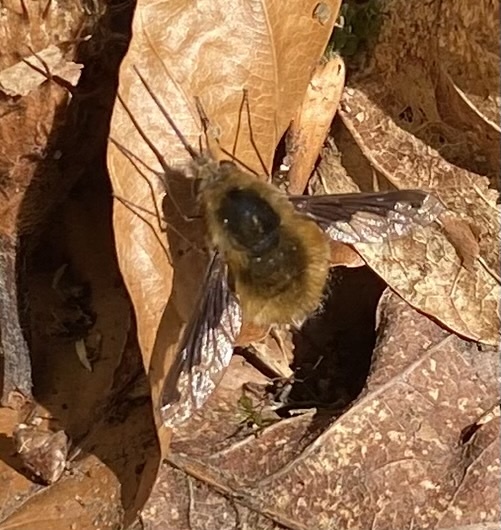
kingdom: Animalia
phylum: Arthropoda
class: Insecta
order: Diptera
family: Bombyliidae
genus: Bombylius
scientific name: Bombylius major
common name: Bee fly
